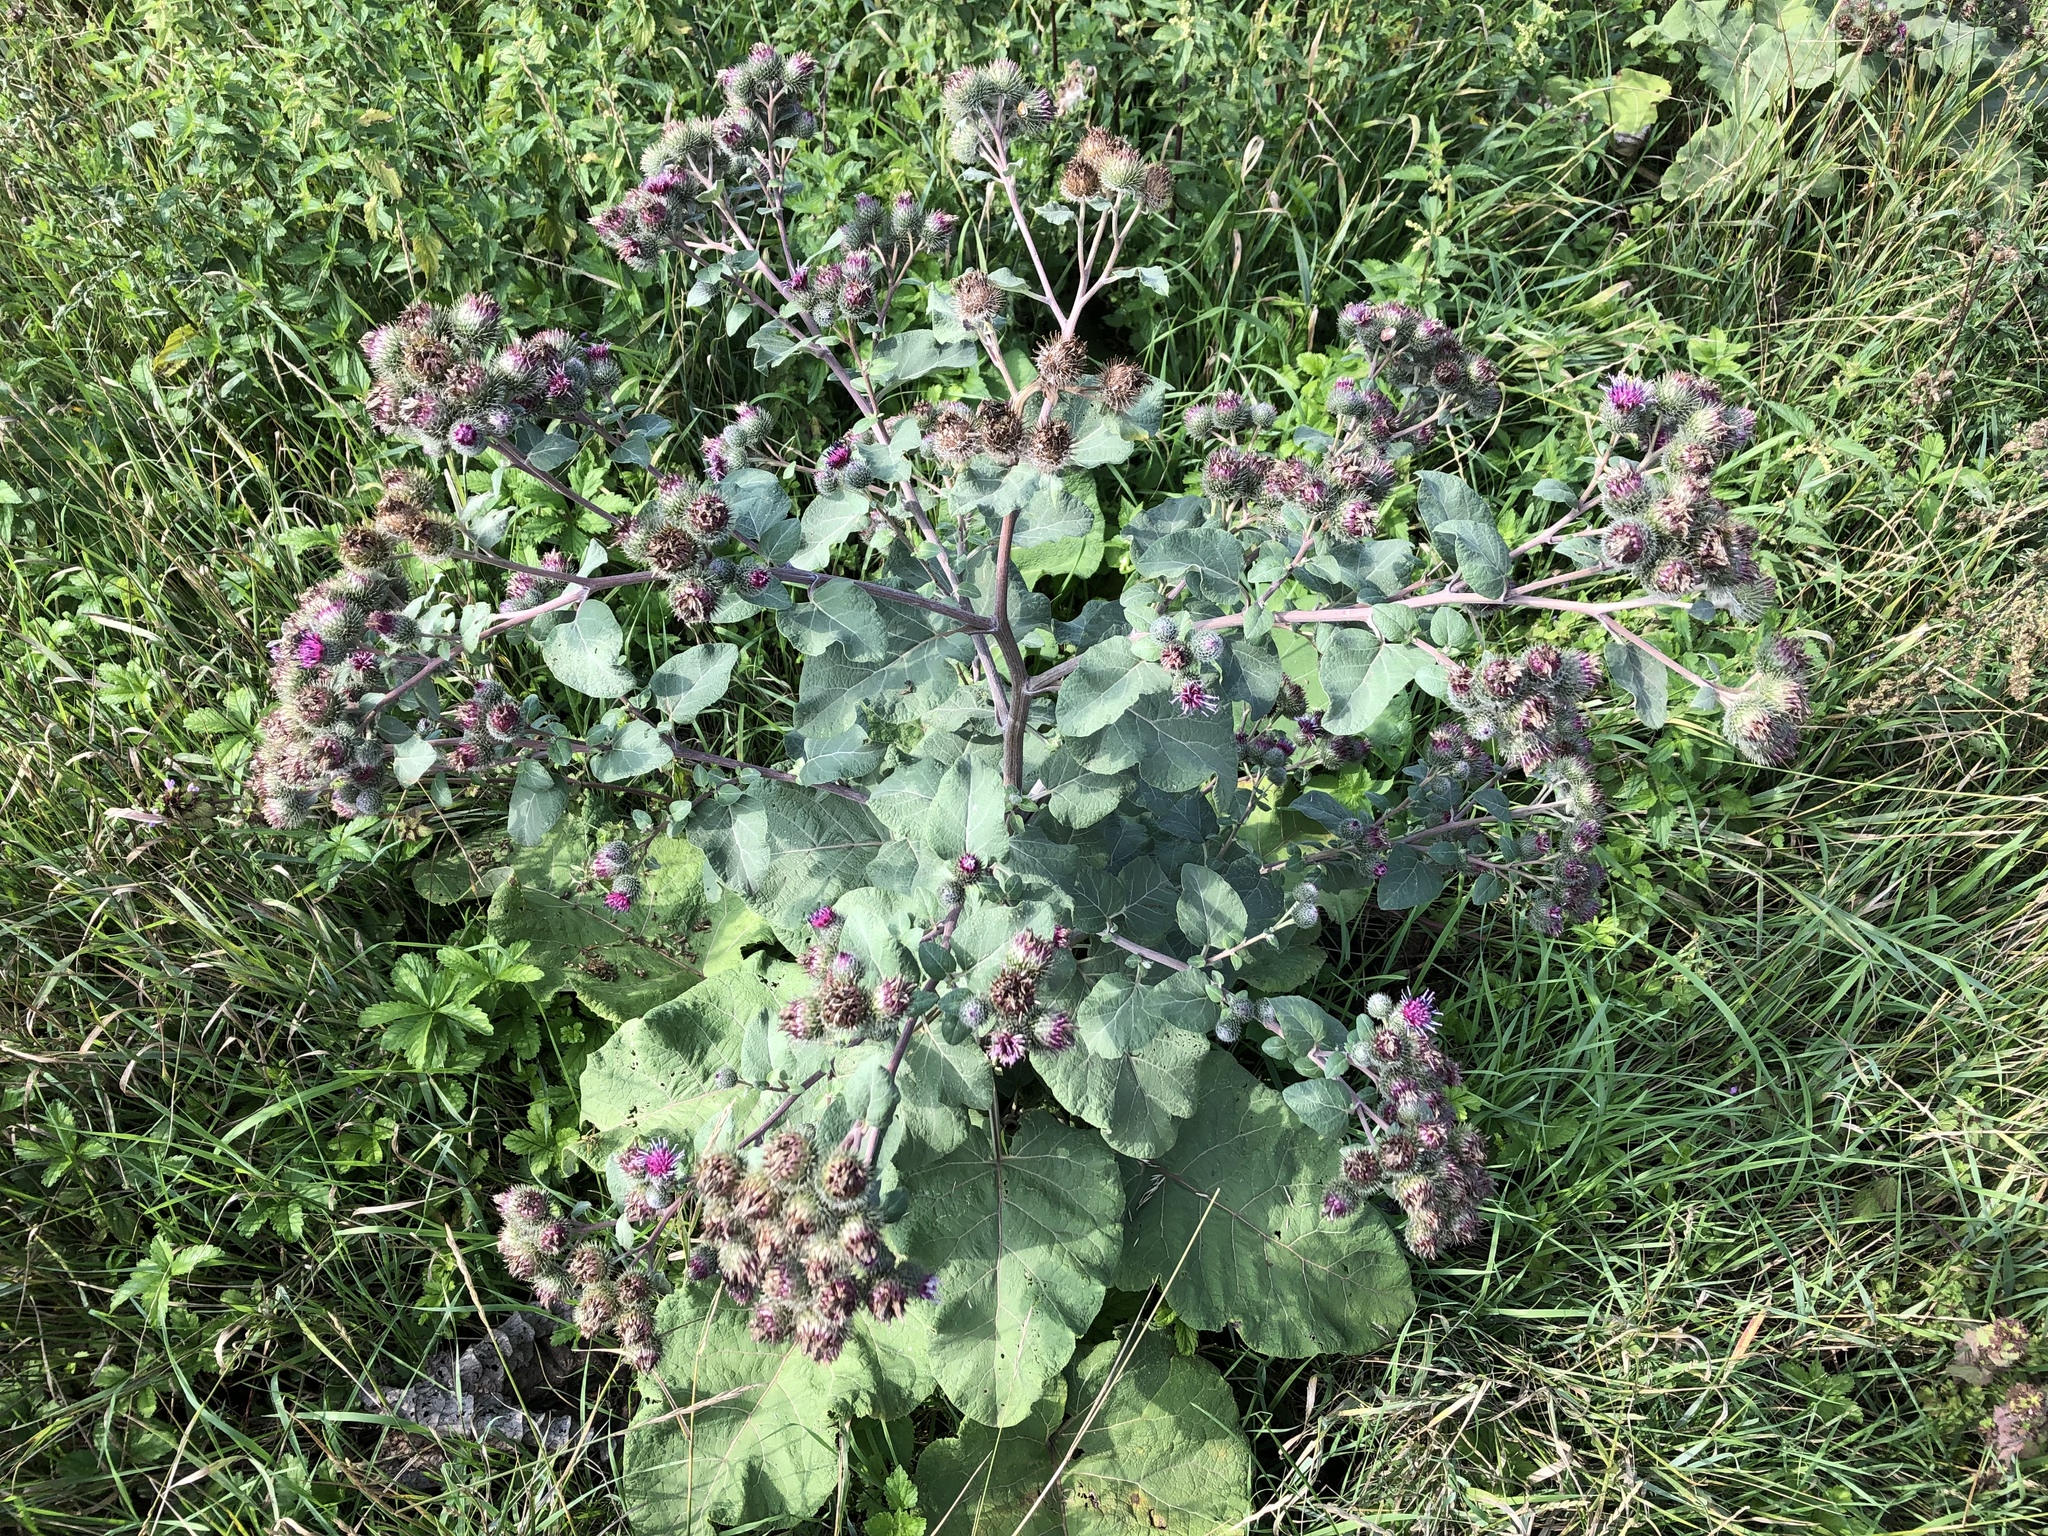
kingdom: Plantae
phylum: Tracheophyta
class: Magnoliopsida
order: Asterales
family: Asteraceae
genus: Arctium
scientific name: Arctium tomentosum
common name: Woolly burdock
